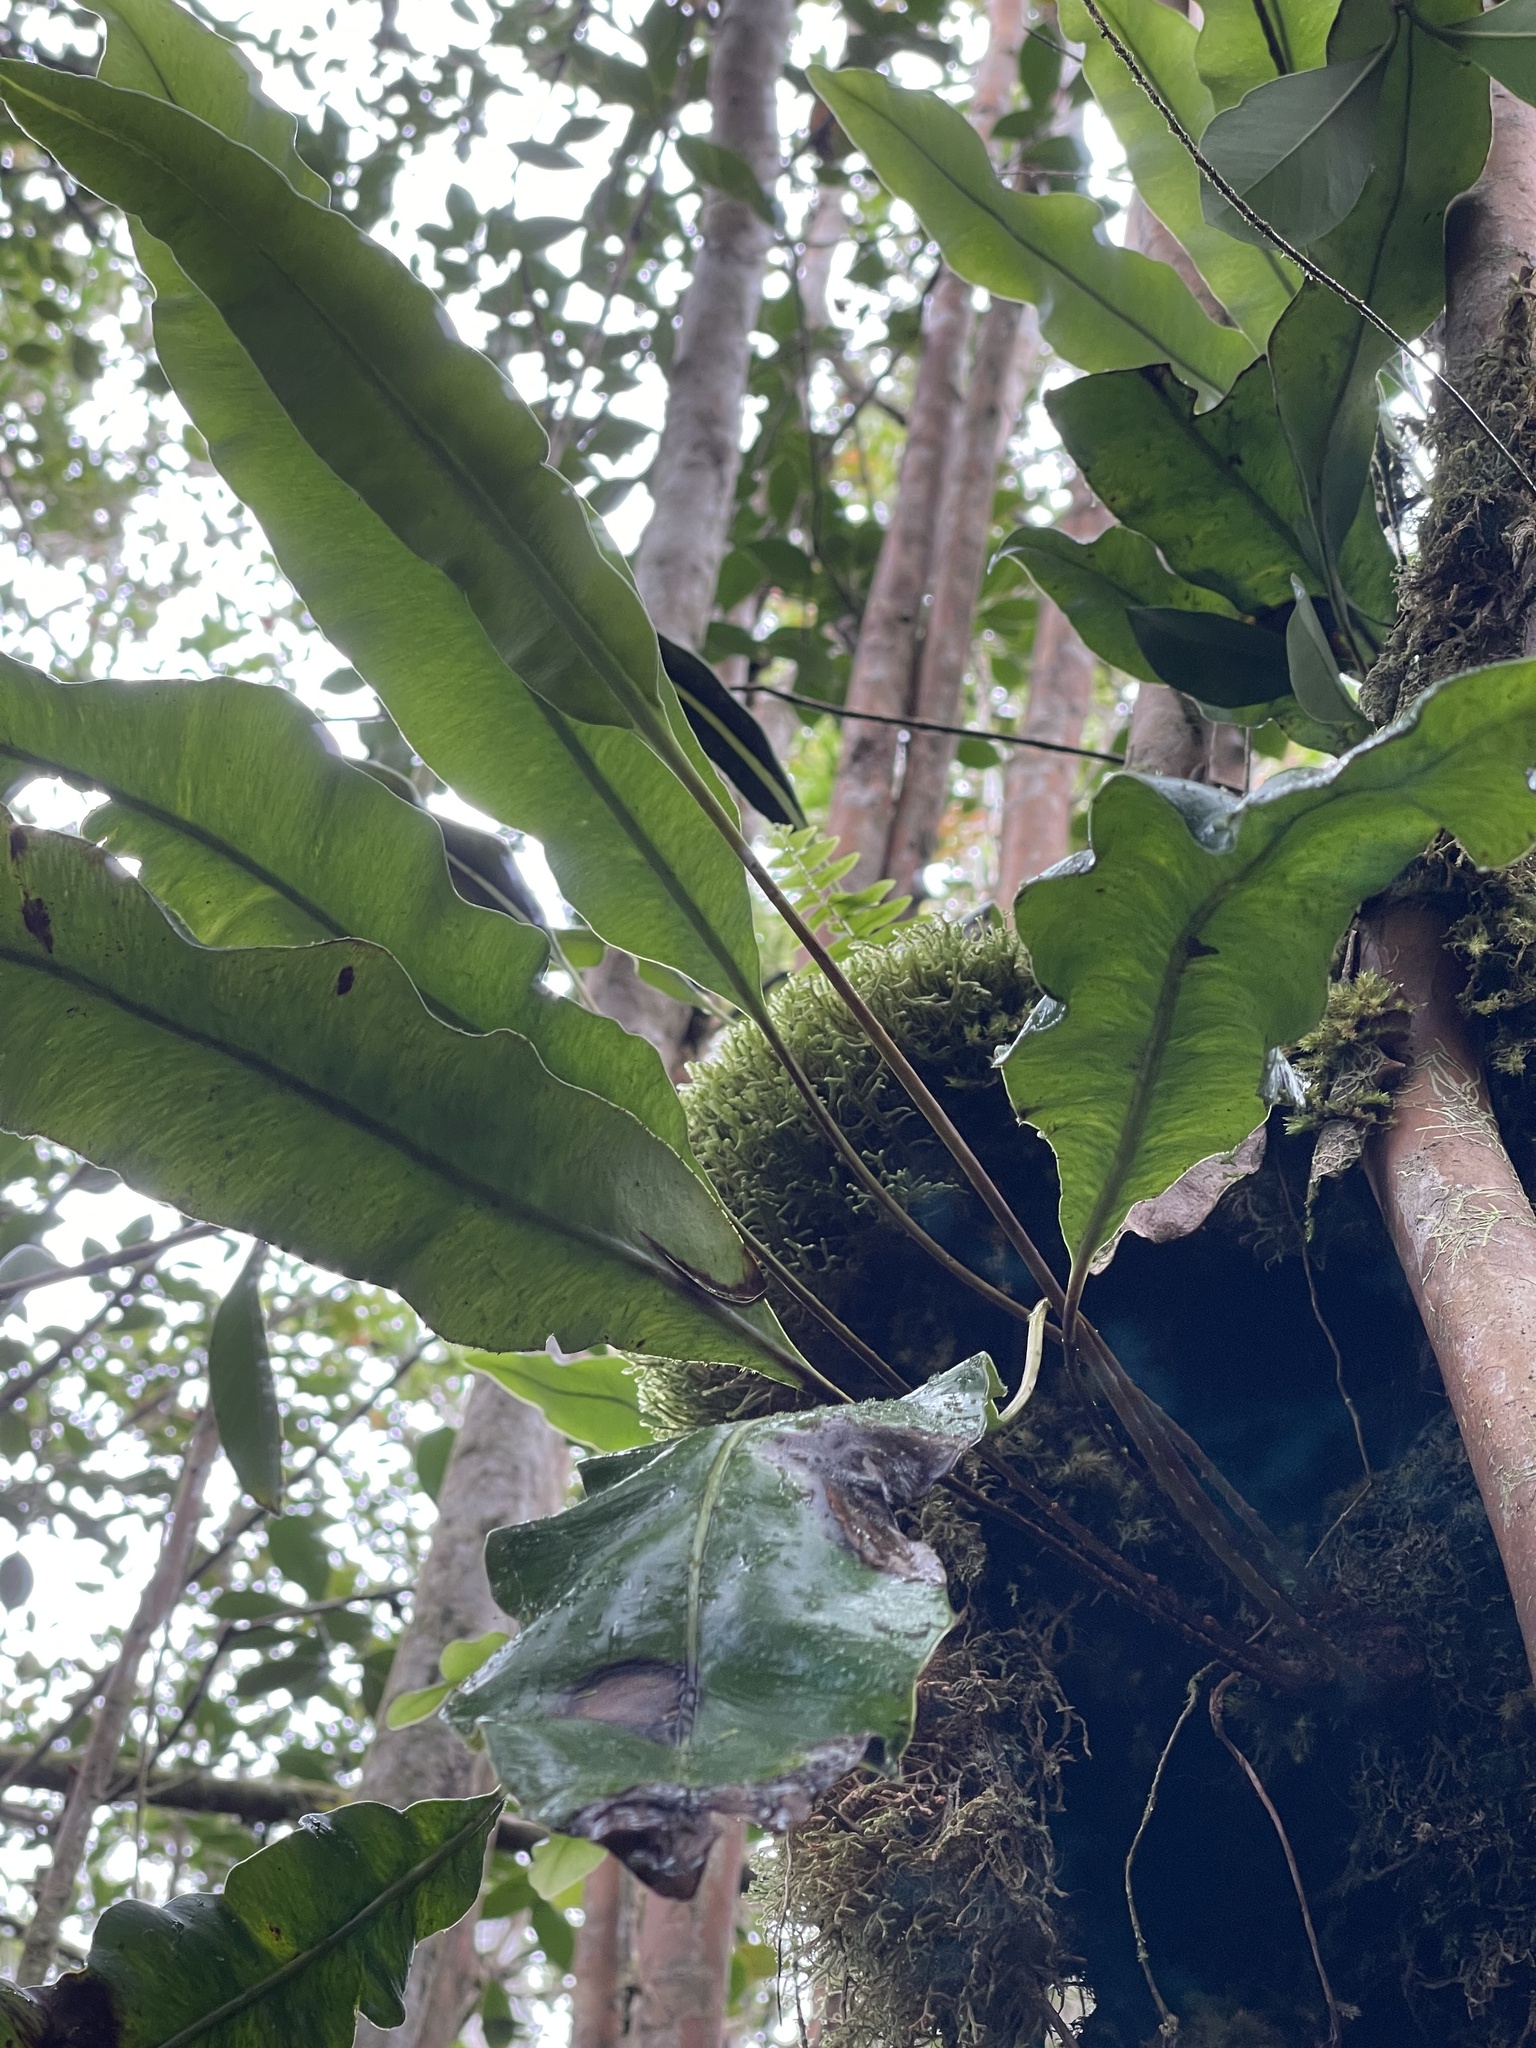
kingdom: Plantae
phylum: Tracheophyta
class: Polypodiopsida
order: Polypodiales
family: Dryopteridaceae
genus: Elaphoglossum
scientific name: Elaphoglossum crassifolium
